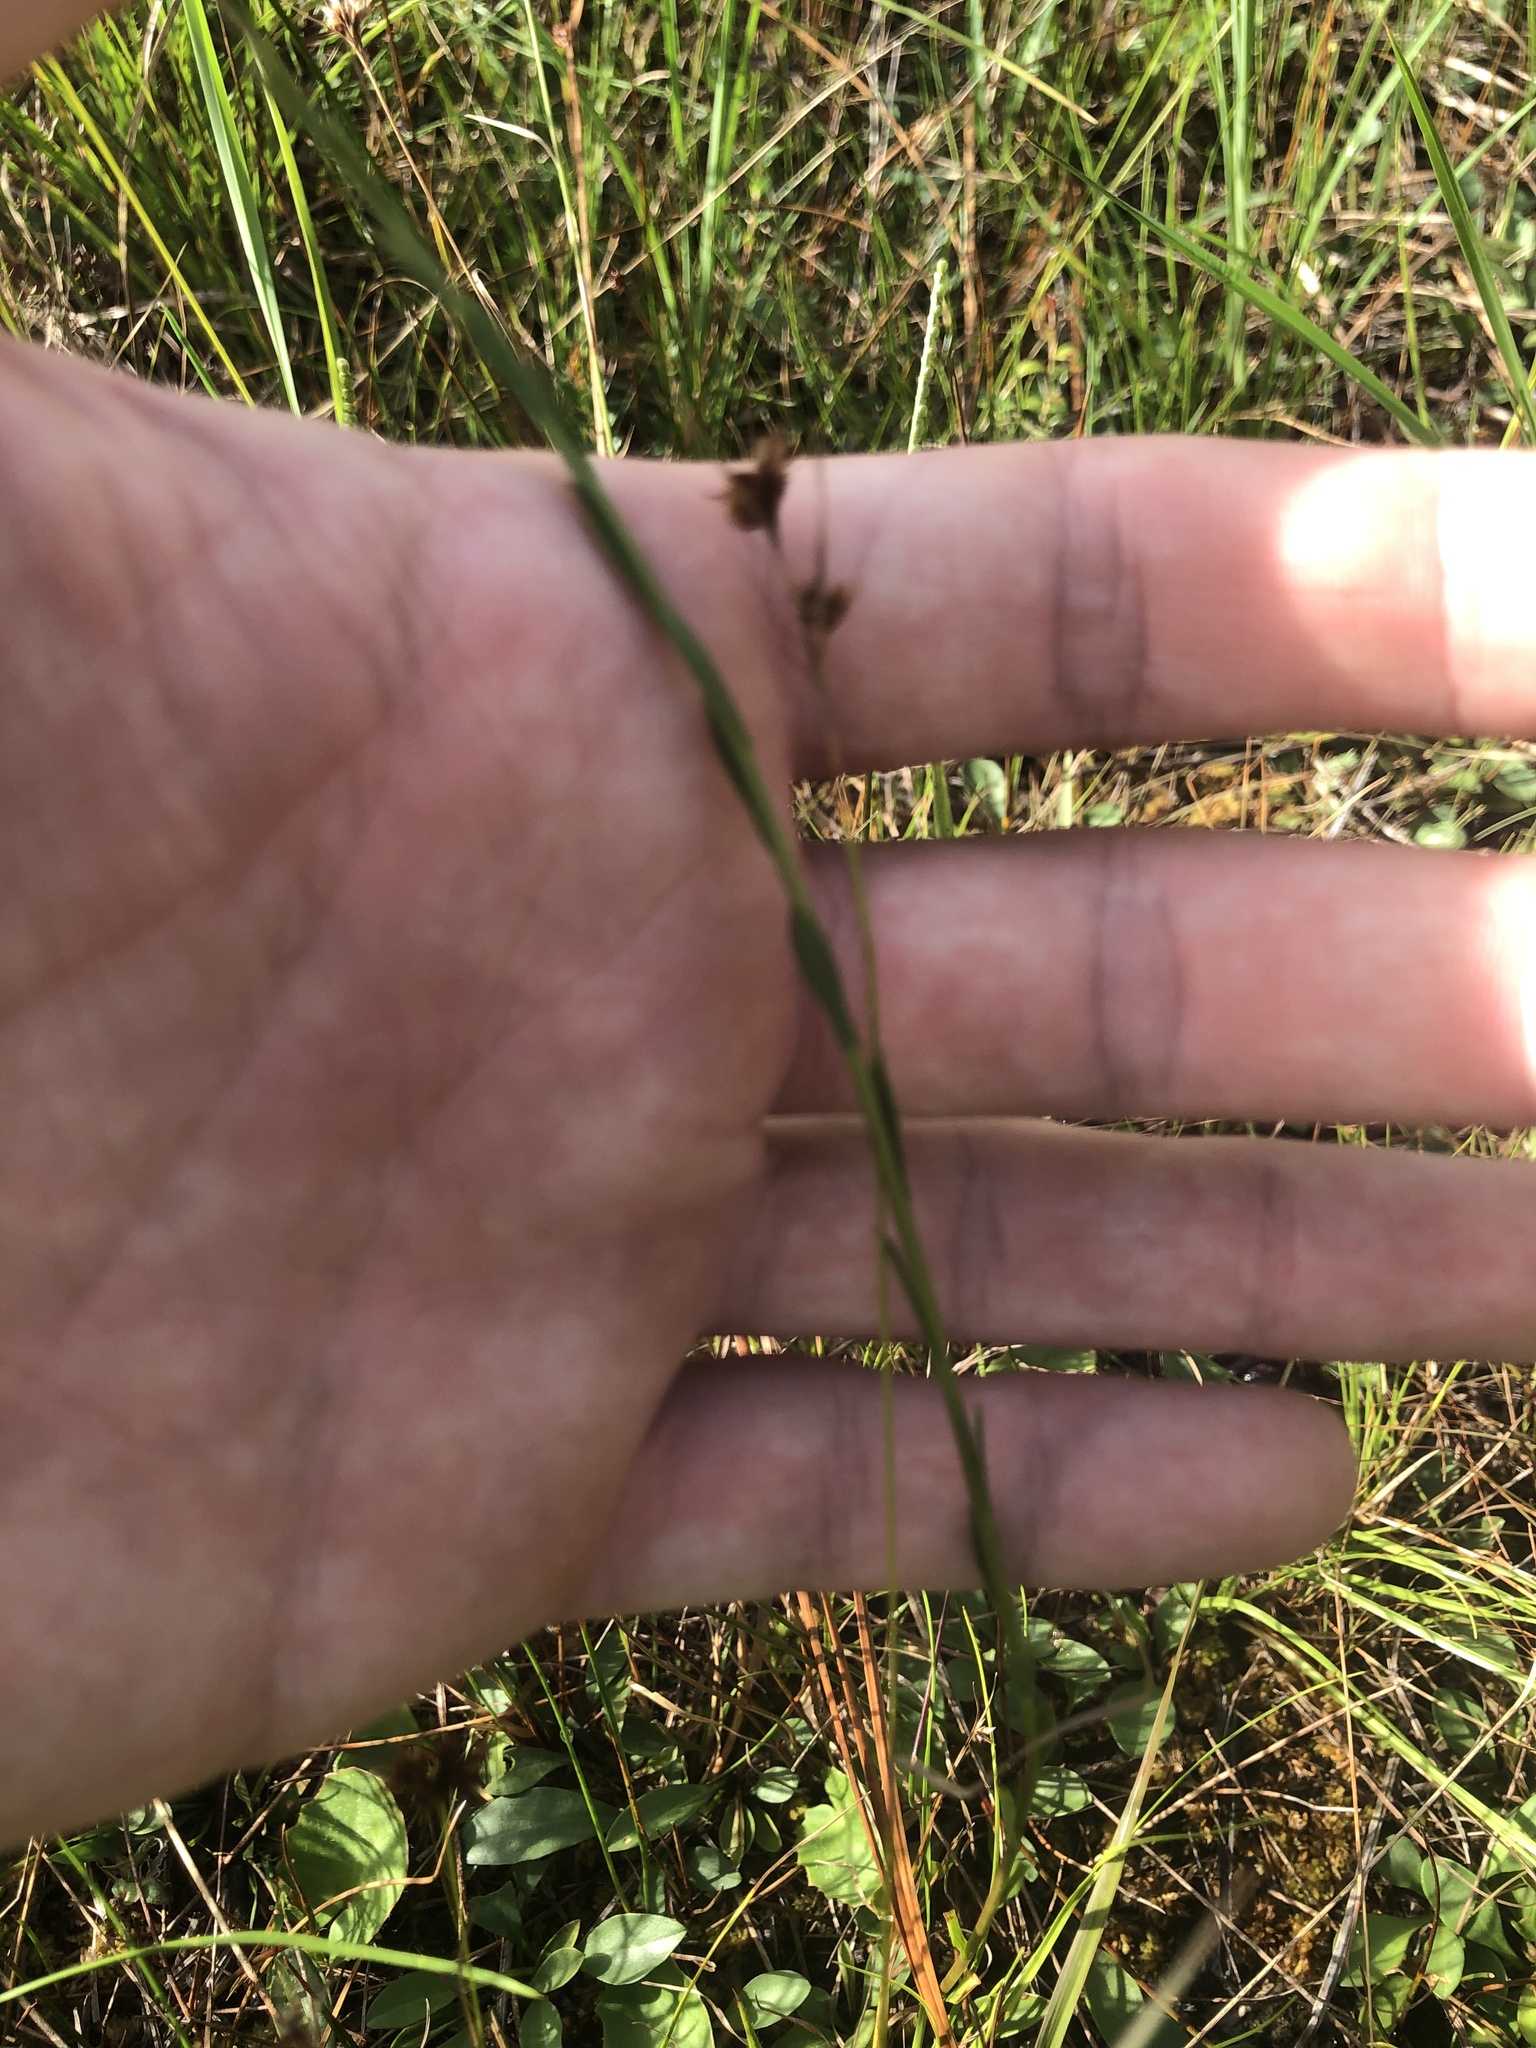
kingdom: Plantae
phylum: Tracheophyta
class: Magnoliopsida
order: Asterales
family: Asteraceae
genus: Solidago
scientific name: Solidago pulchra
